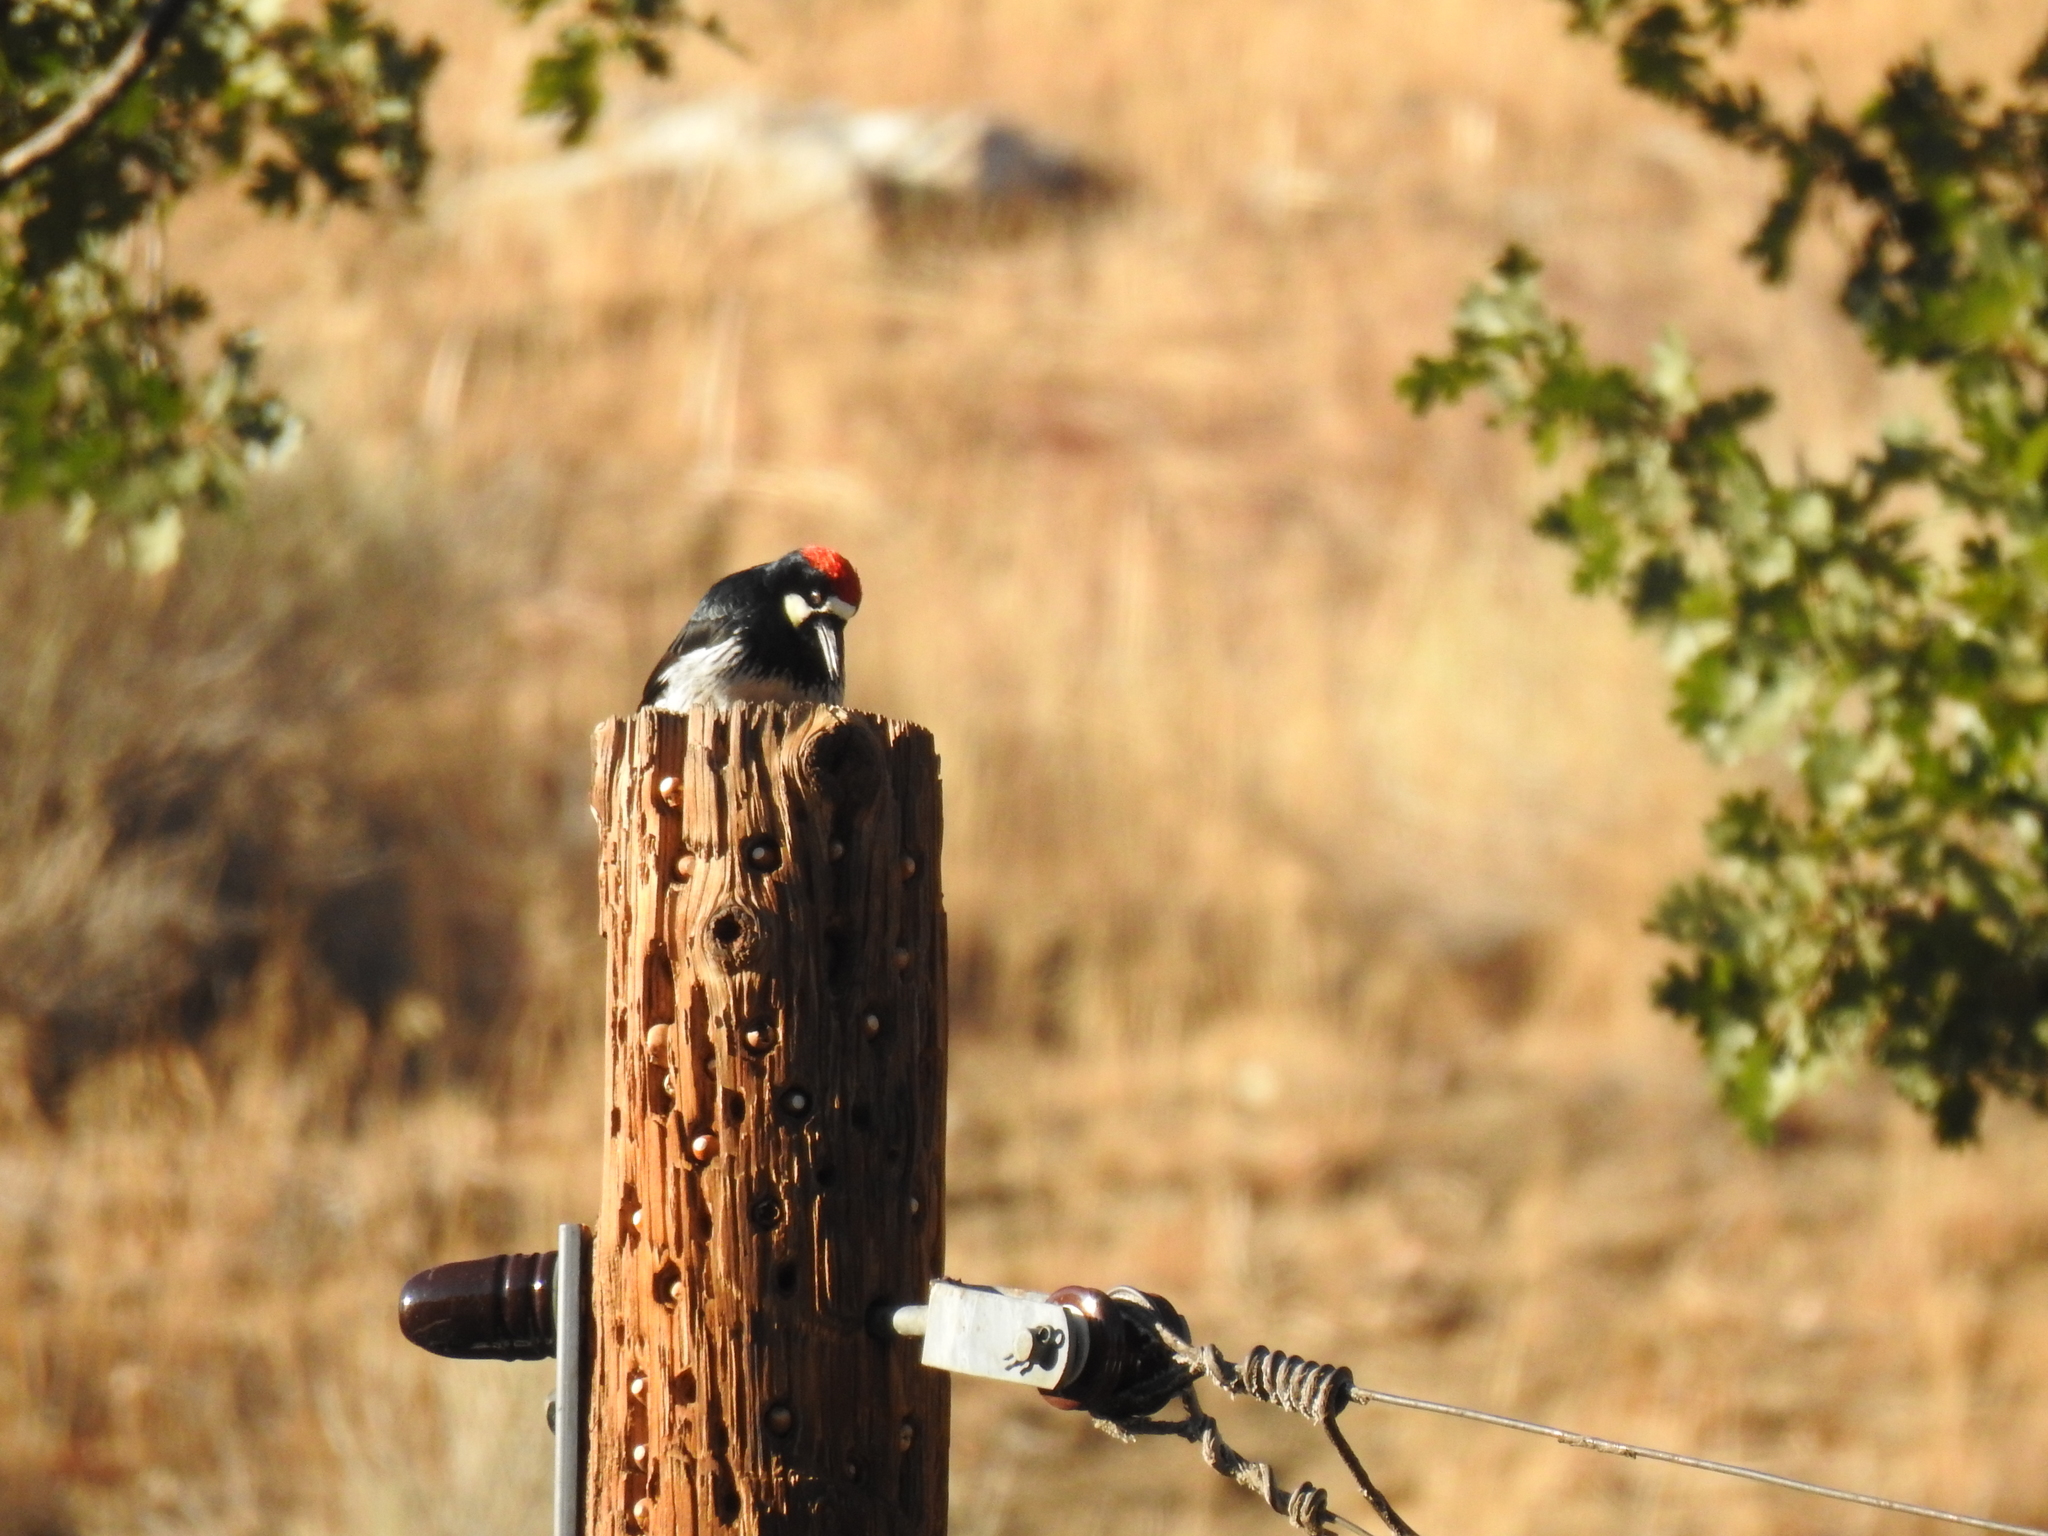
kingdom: Animalia
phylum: Chordata
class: Aves
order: Piciformes
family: Picidae
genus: Melanerpes
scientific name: Melanerpes formicivorus
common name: Acorn woodpecker
